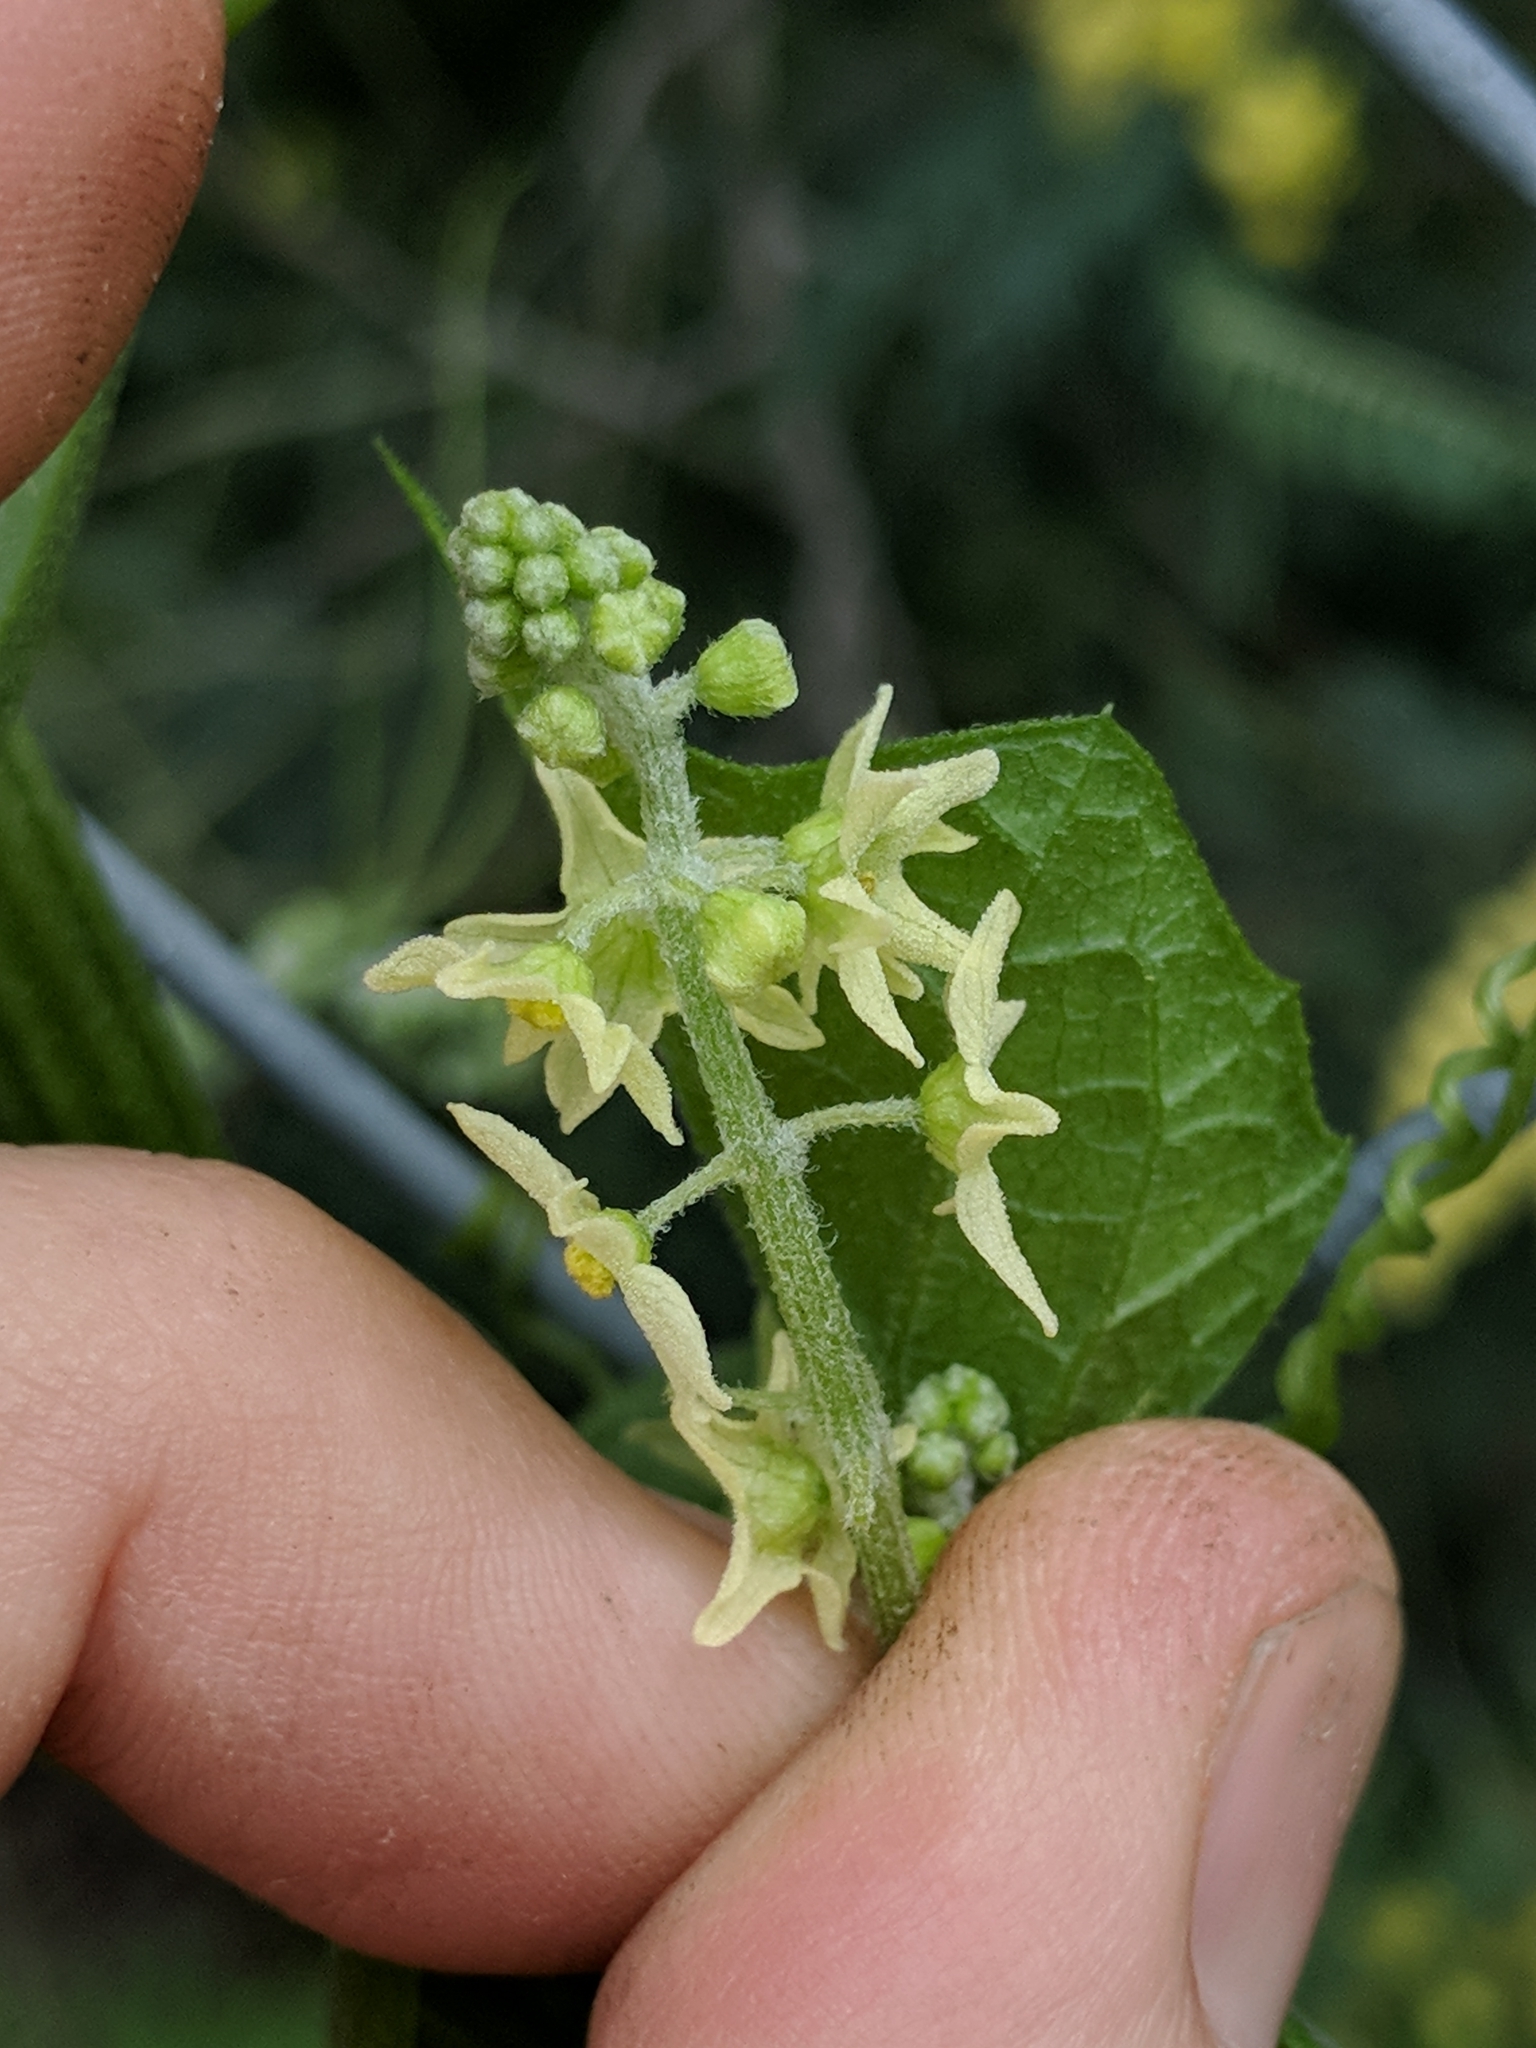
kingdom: Plantae
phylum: Tracheophyta
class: Magnoliopsida
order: Cucurbitales
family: Cucurbitaceae
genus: Marah
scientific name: Marah fabacea
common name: California manroot
